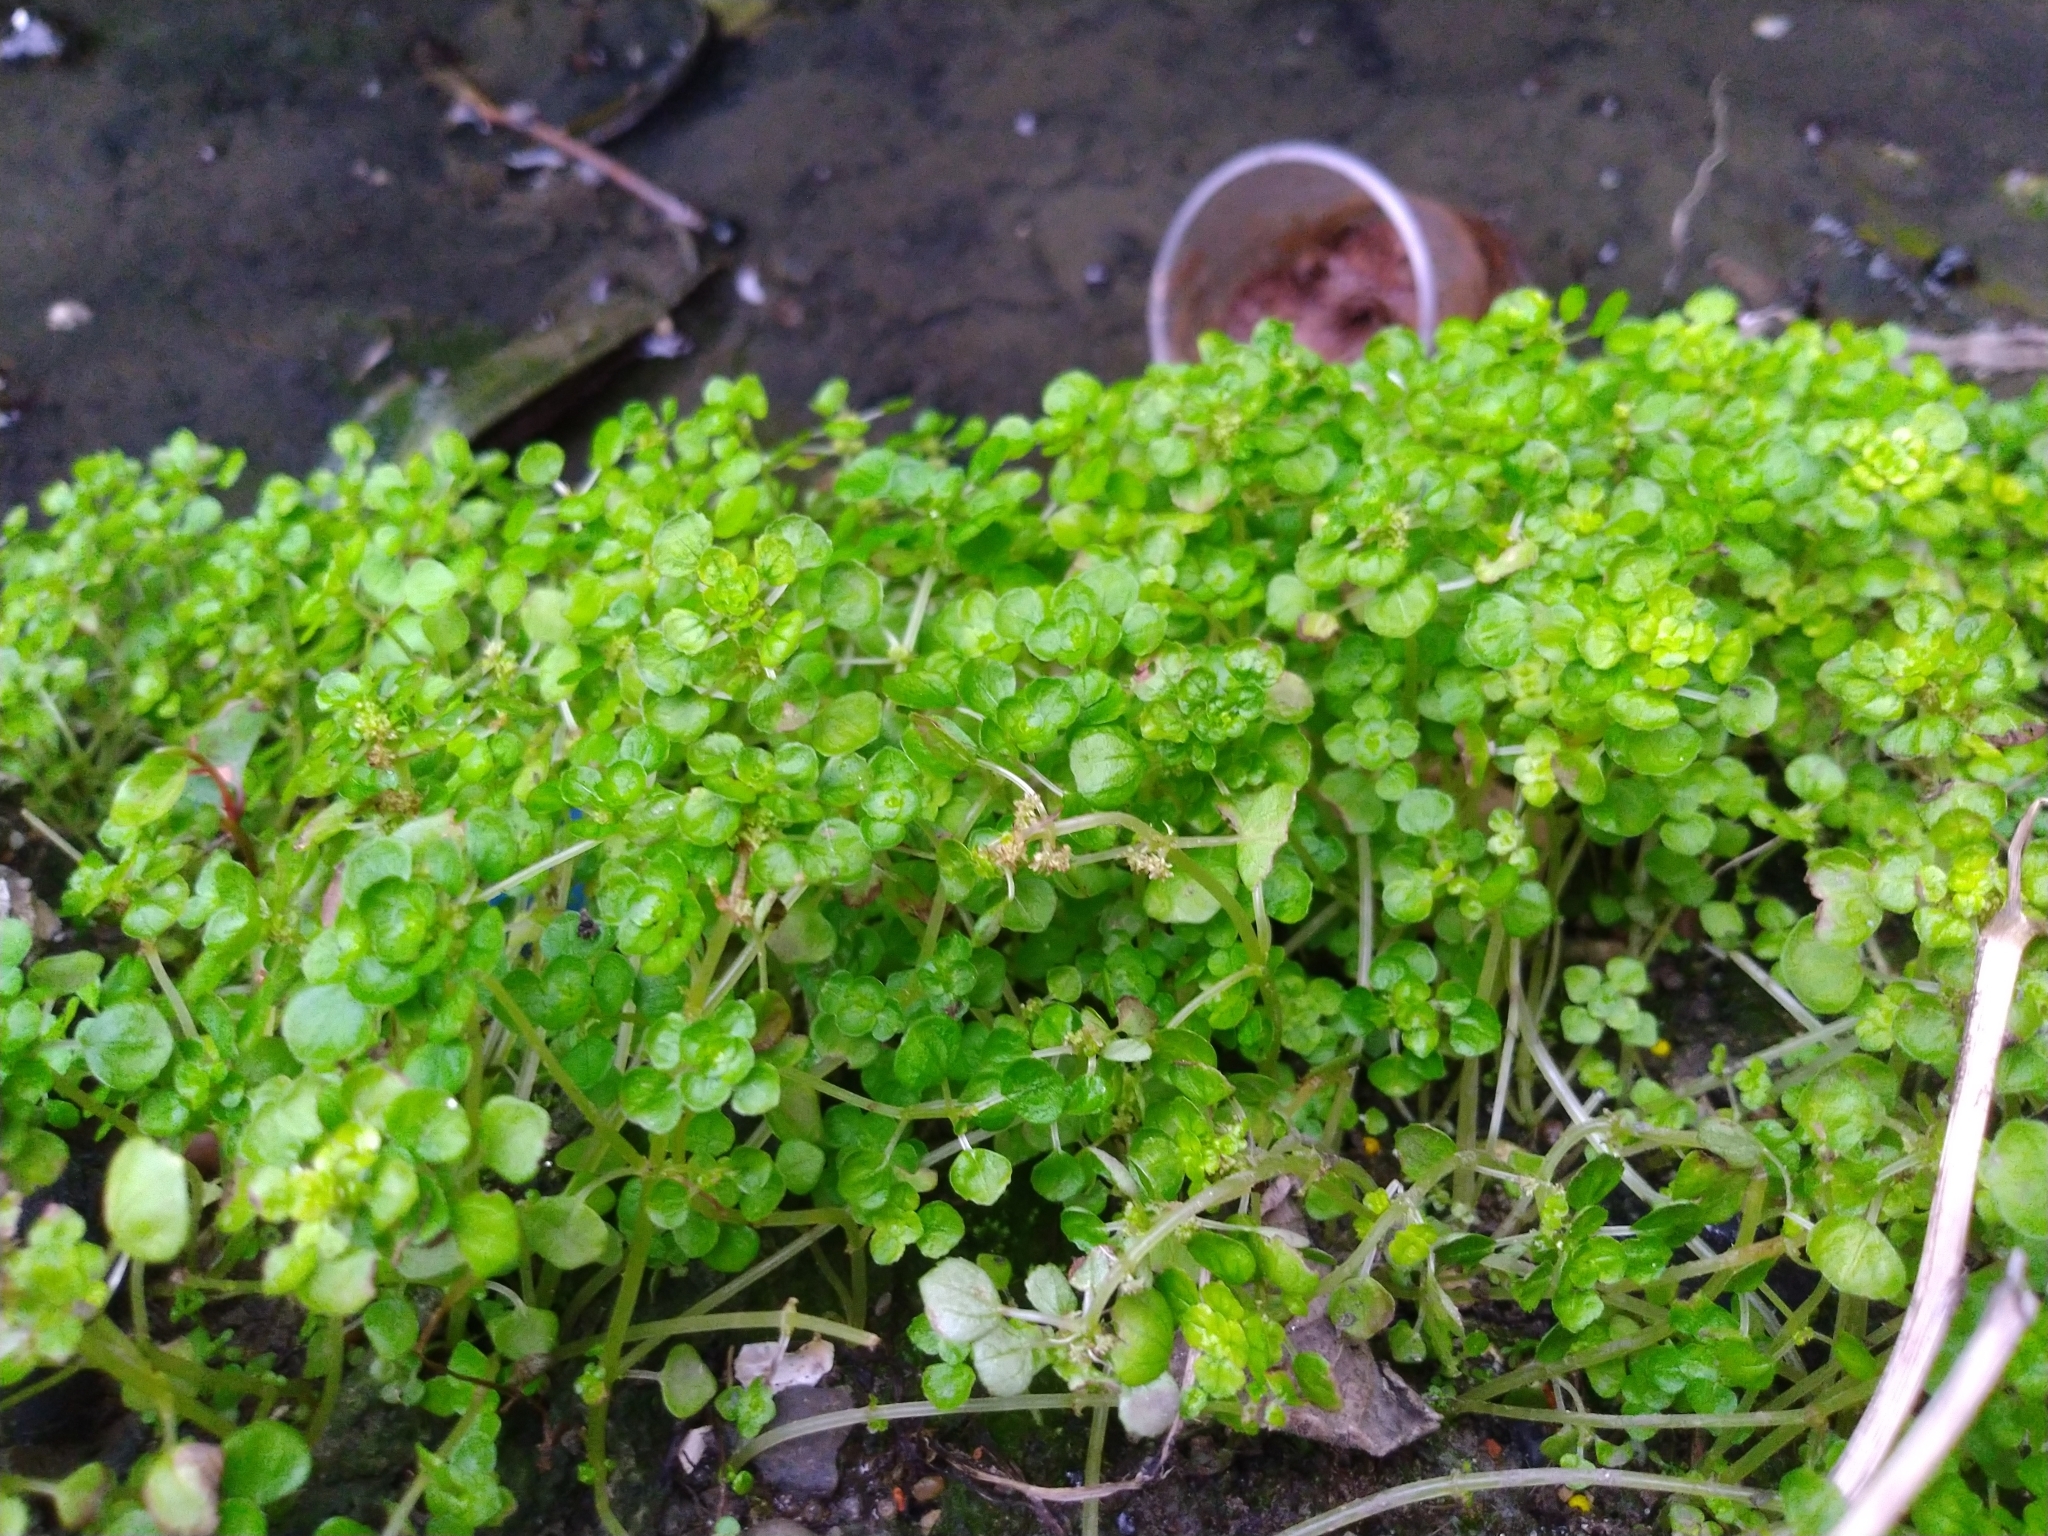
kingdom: Plantae
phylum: Tracheophyta
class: Magnoliopsida
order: Rosales
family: Urticaceae
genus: Pilea
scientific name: Pilea peploides
